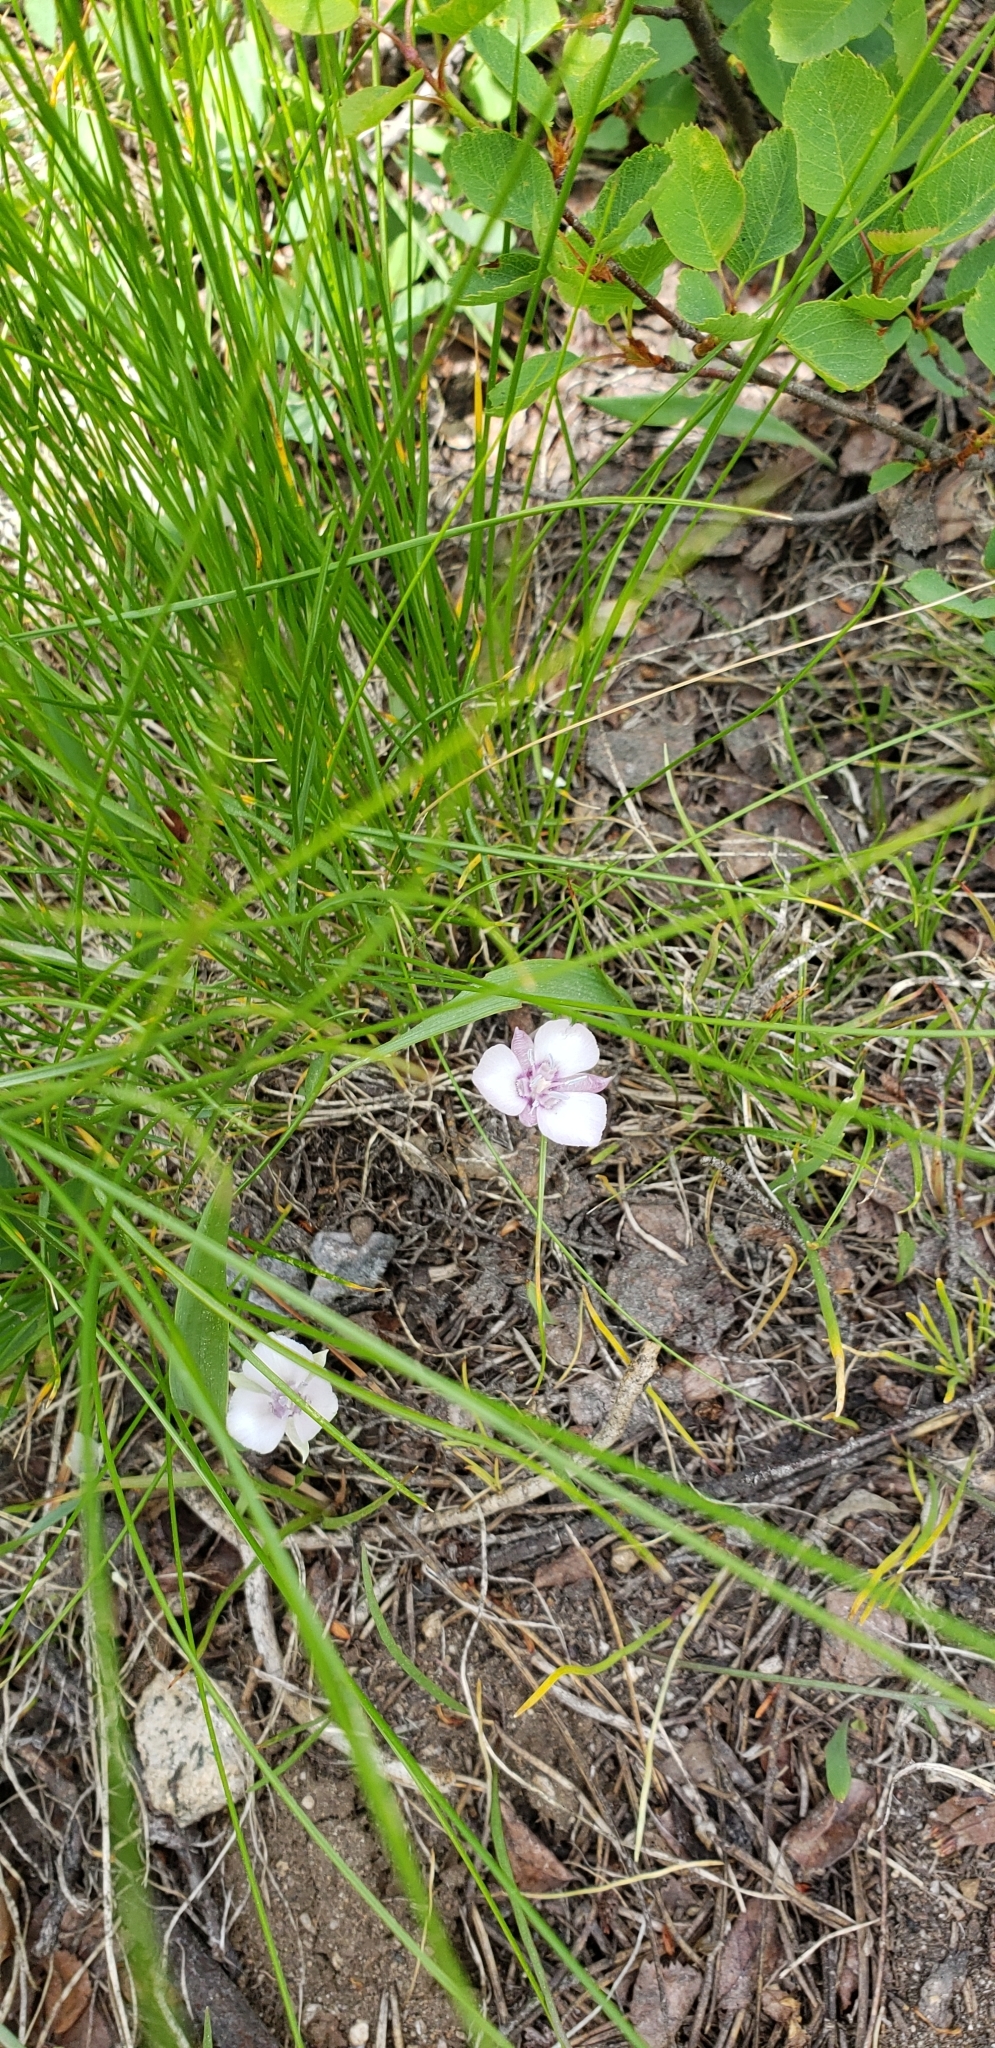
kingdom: Plantae
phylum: Tracheophyta
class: Liliopsida
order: Liliales
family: Liliaceae
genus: Calochortus
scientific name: Calochortus minimus
